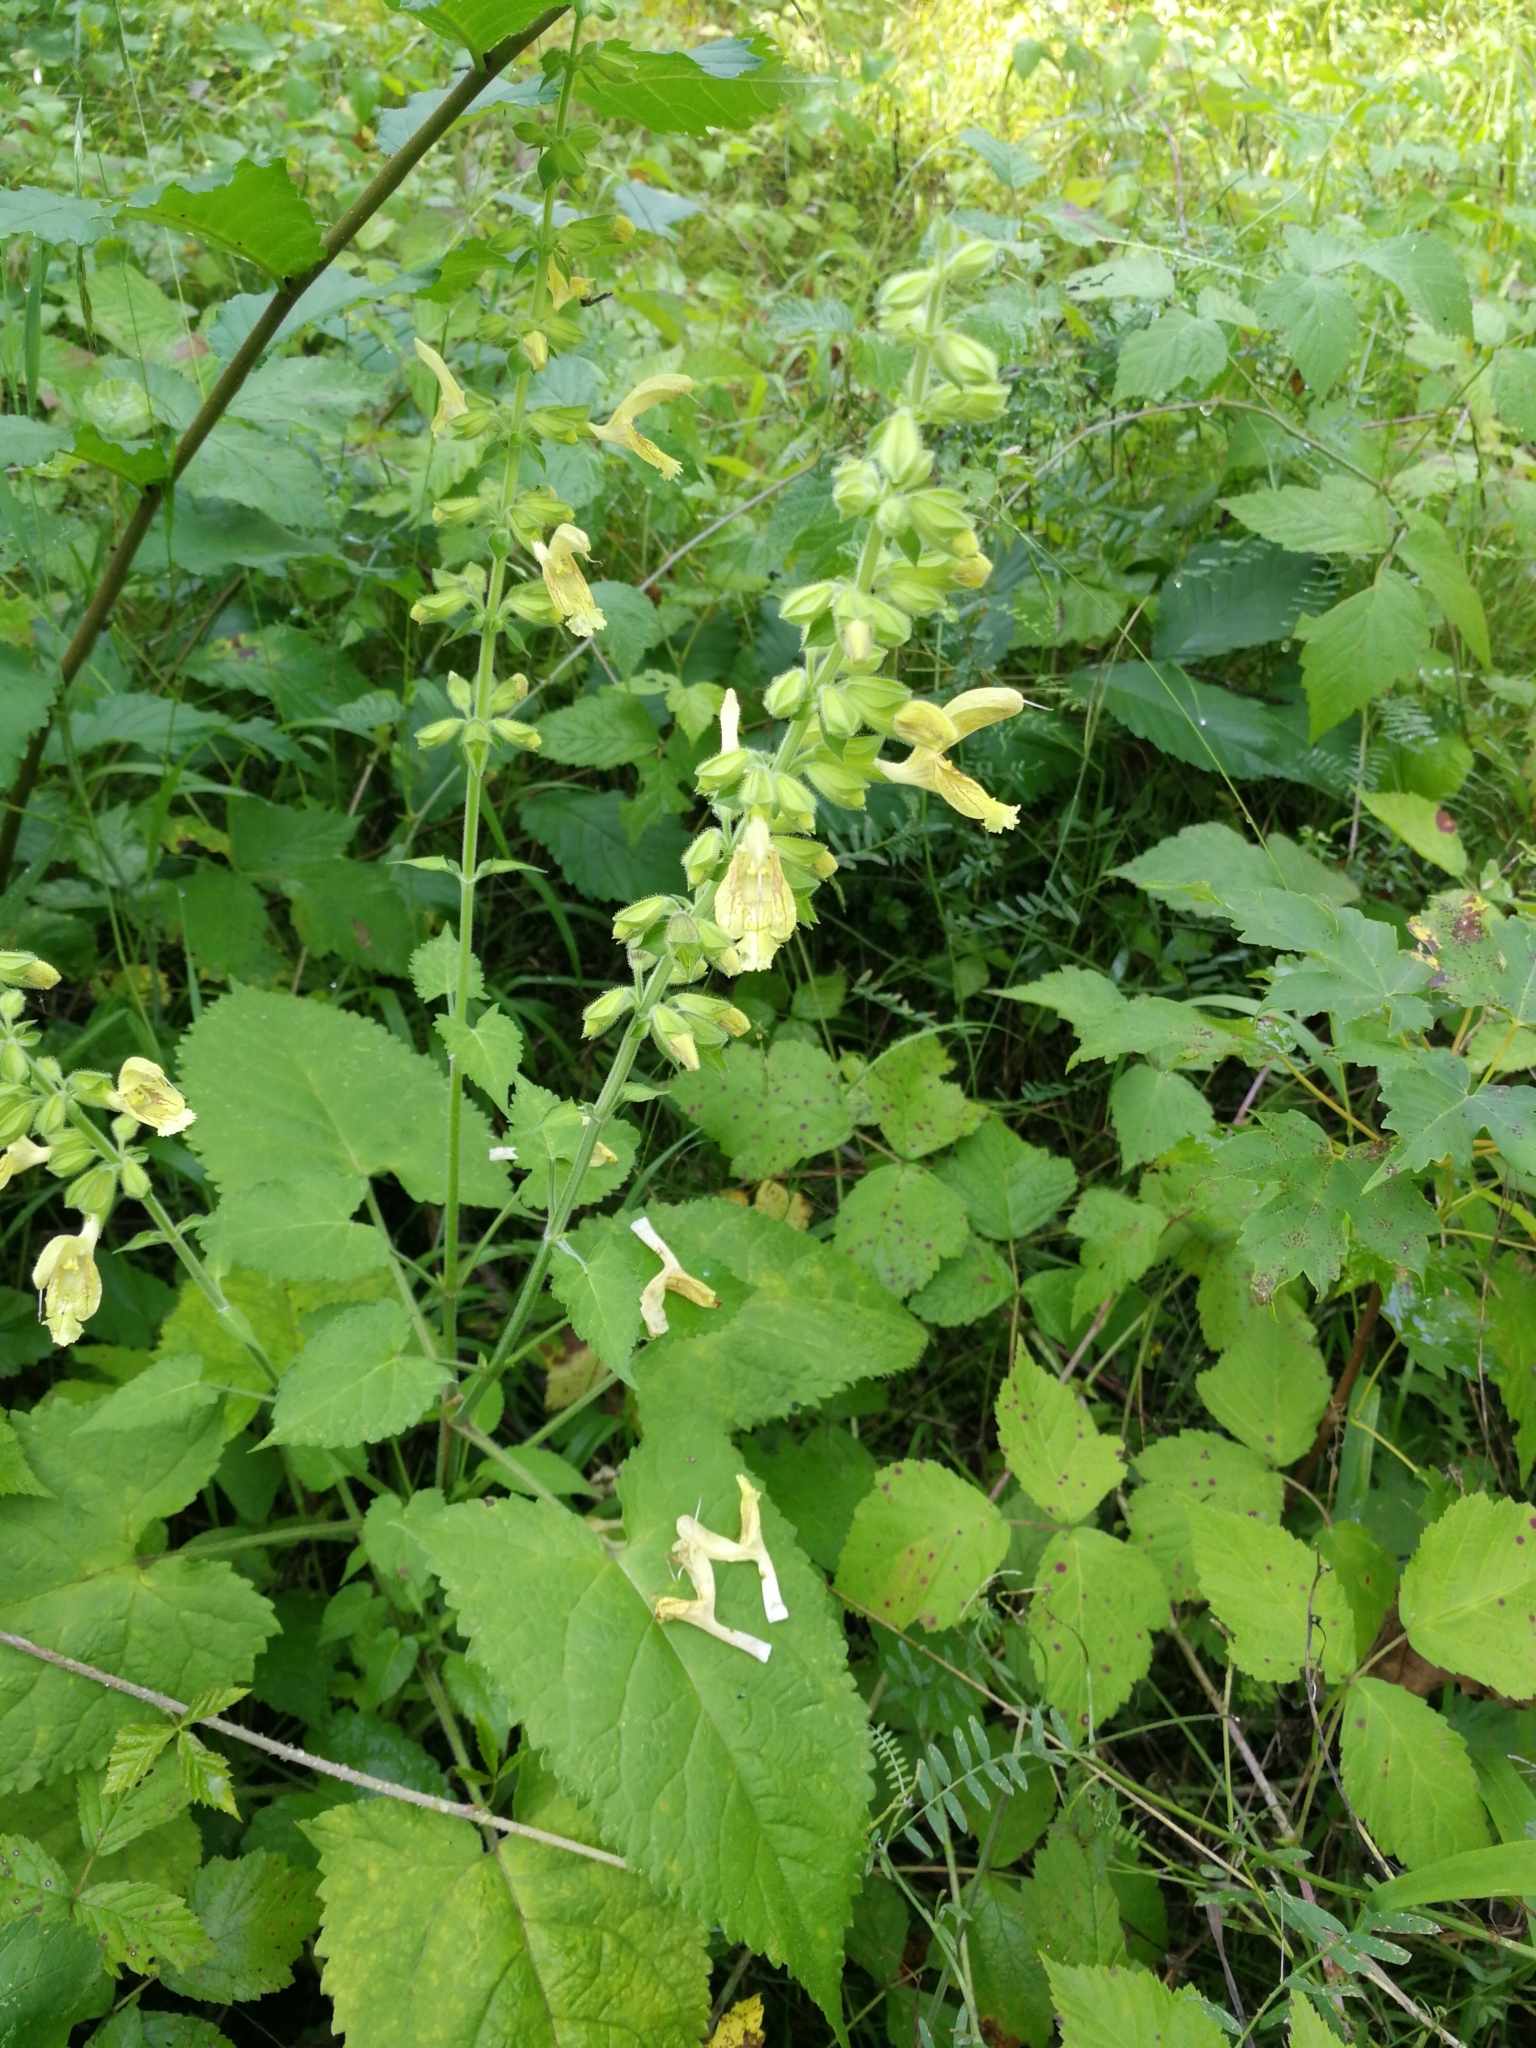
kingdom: Plantae
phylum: Tracheophyta
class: Magnoliopsida
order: Lamiales
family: Lamiaceae
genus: Salvia
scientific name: Salvia glutinosa
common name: Sticky clary
